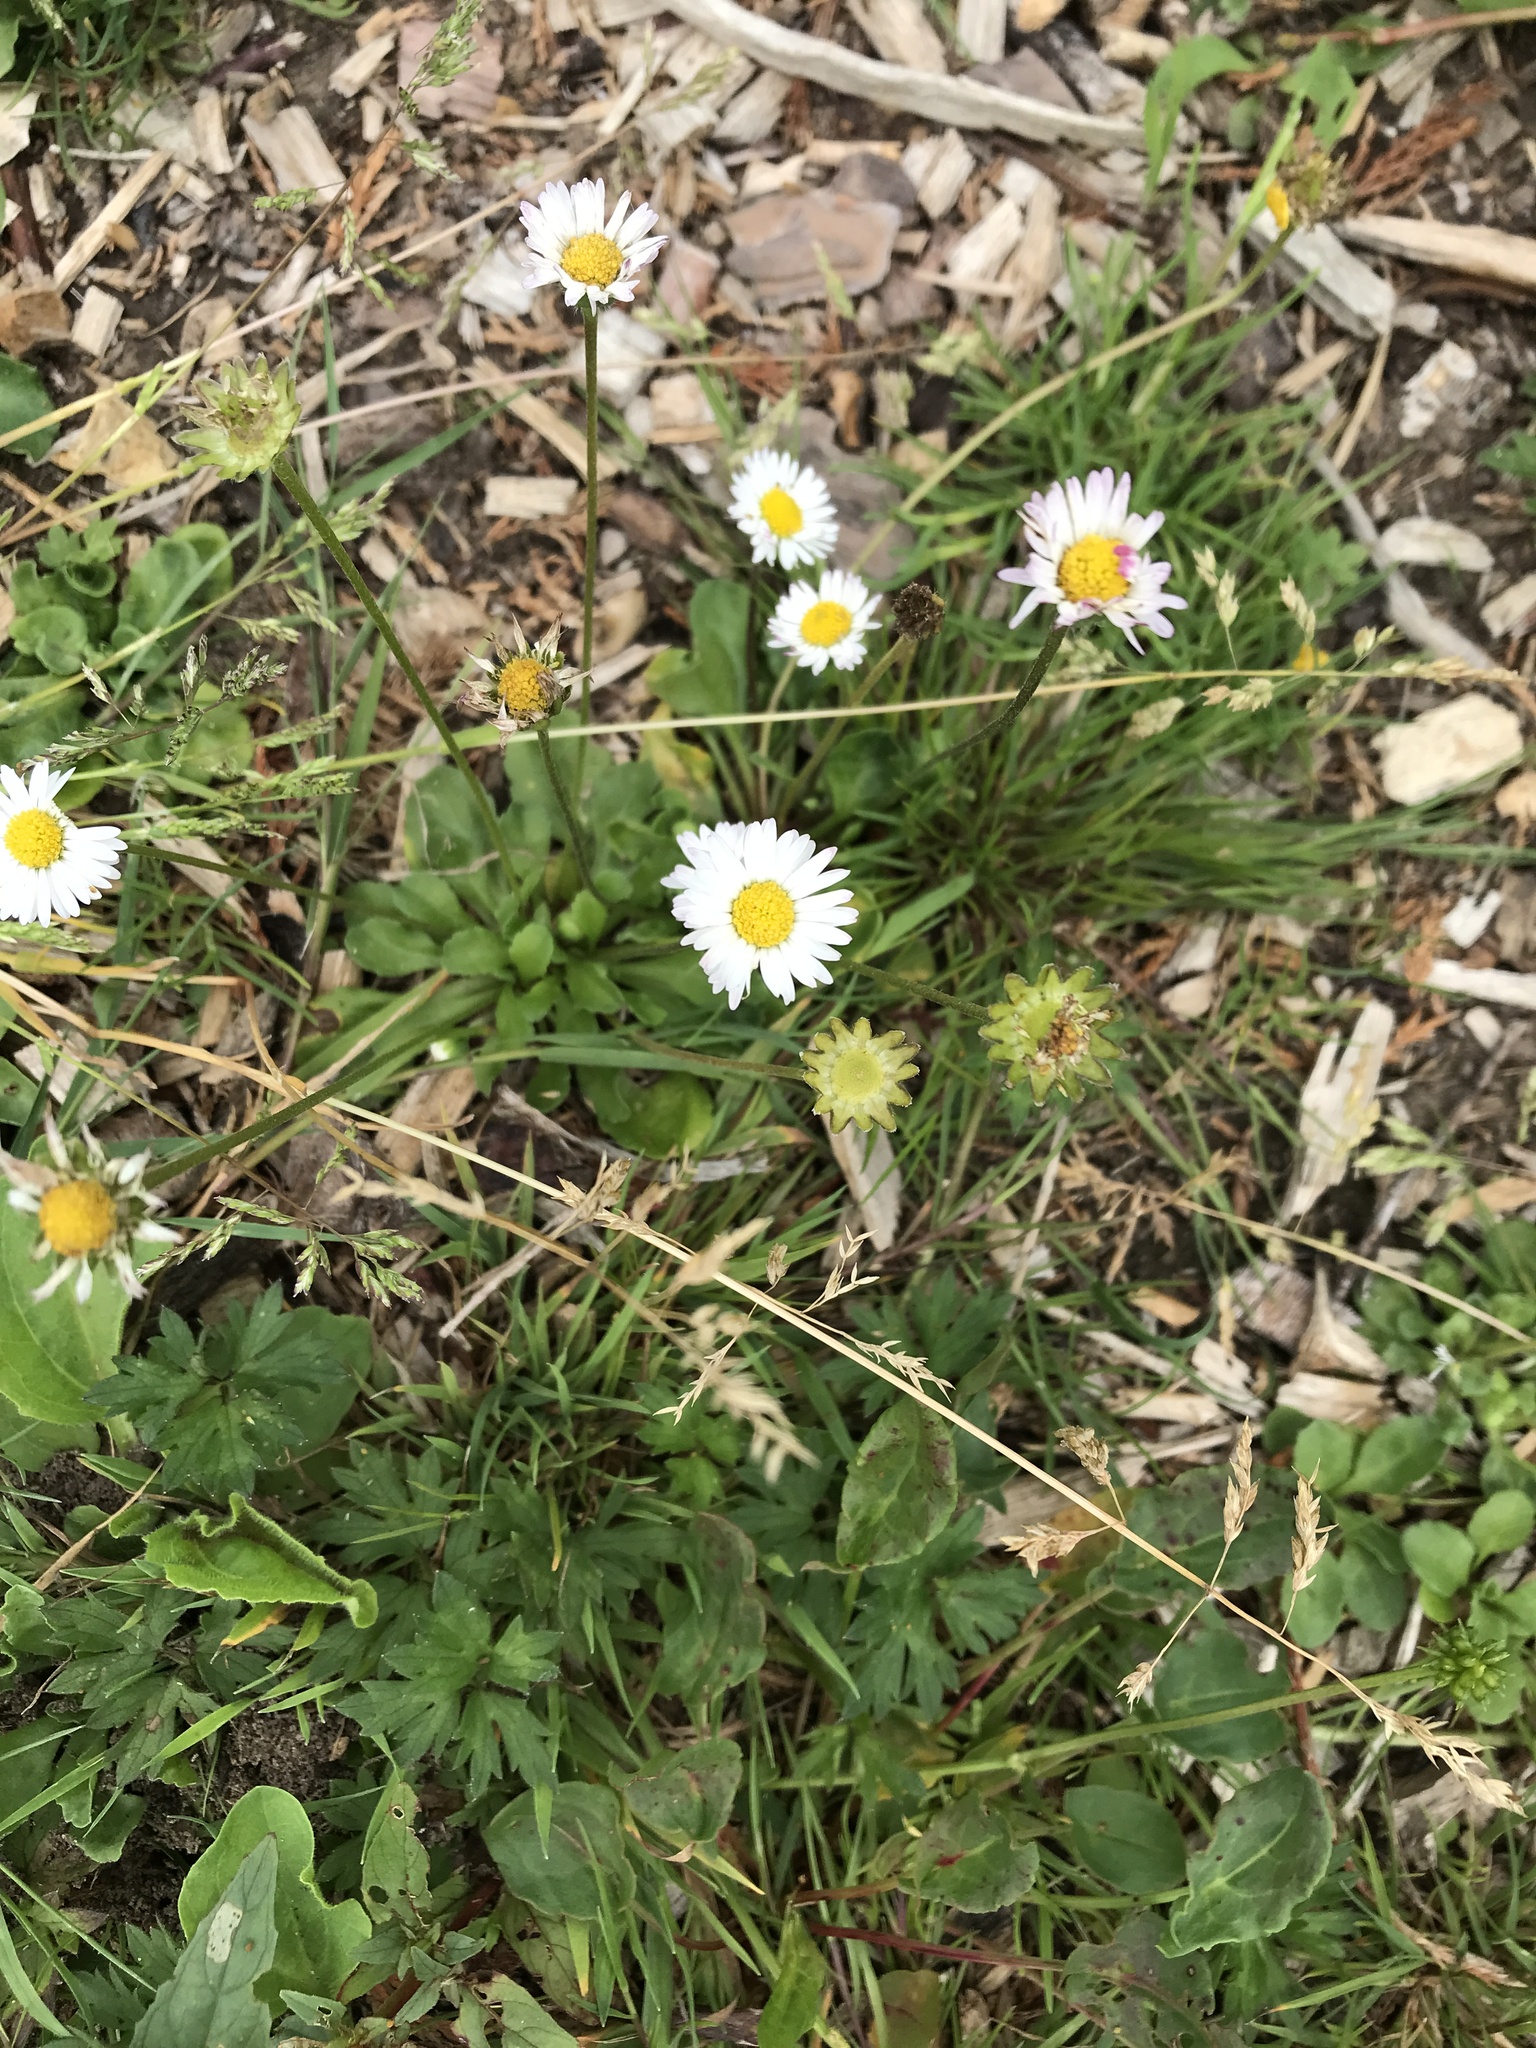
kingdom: Plantae
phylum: Tracheophyta
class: Magnoliopsida
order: Asterales
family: Asteraceae
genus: Bellis
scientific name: Bellis perennis
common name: Lawndaisy
